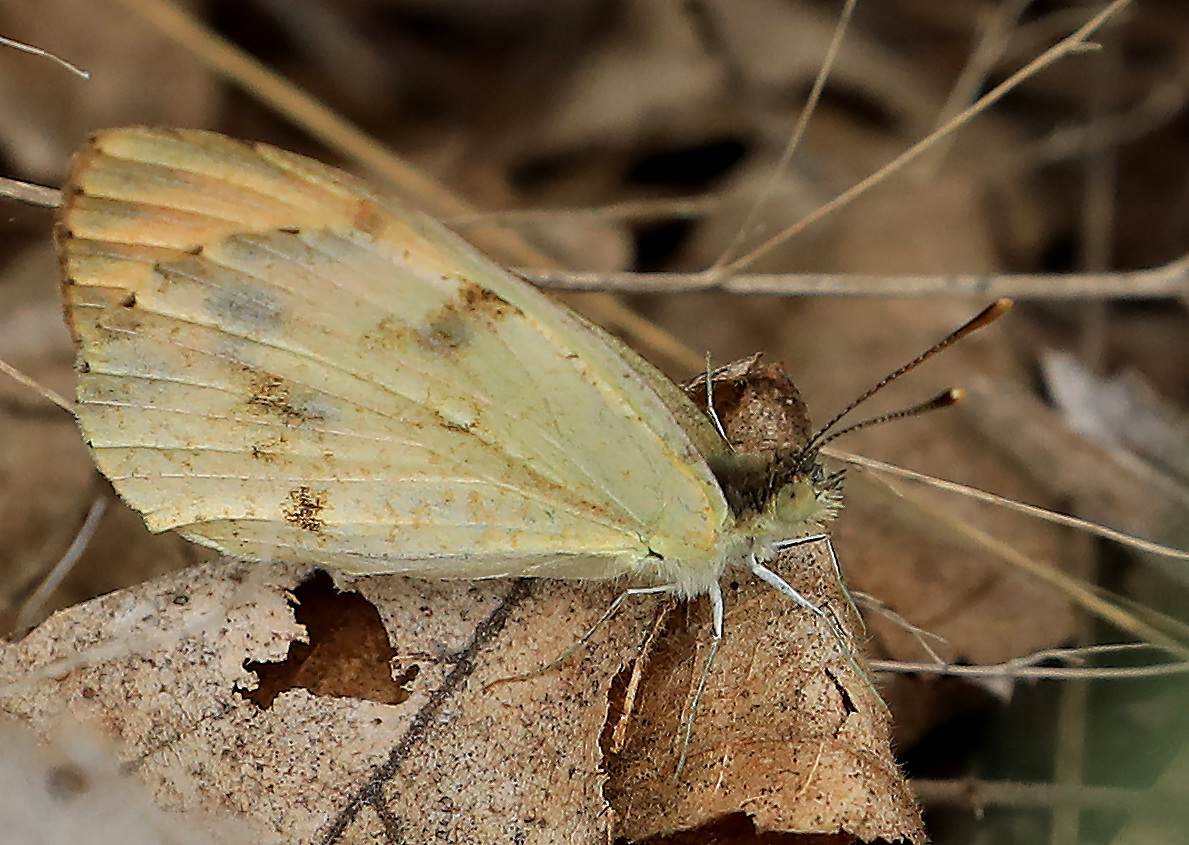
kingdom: Animalia
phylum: Arthropoda
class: Insecta
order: Lepidoptera
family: Pieridae
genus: Colotis
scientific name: Colotis auxo
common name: Sulphur orange tip
